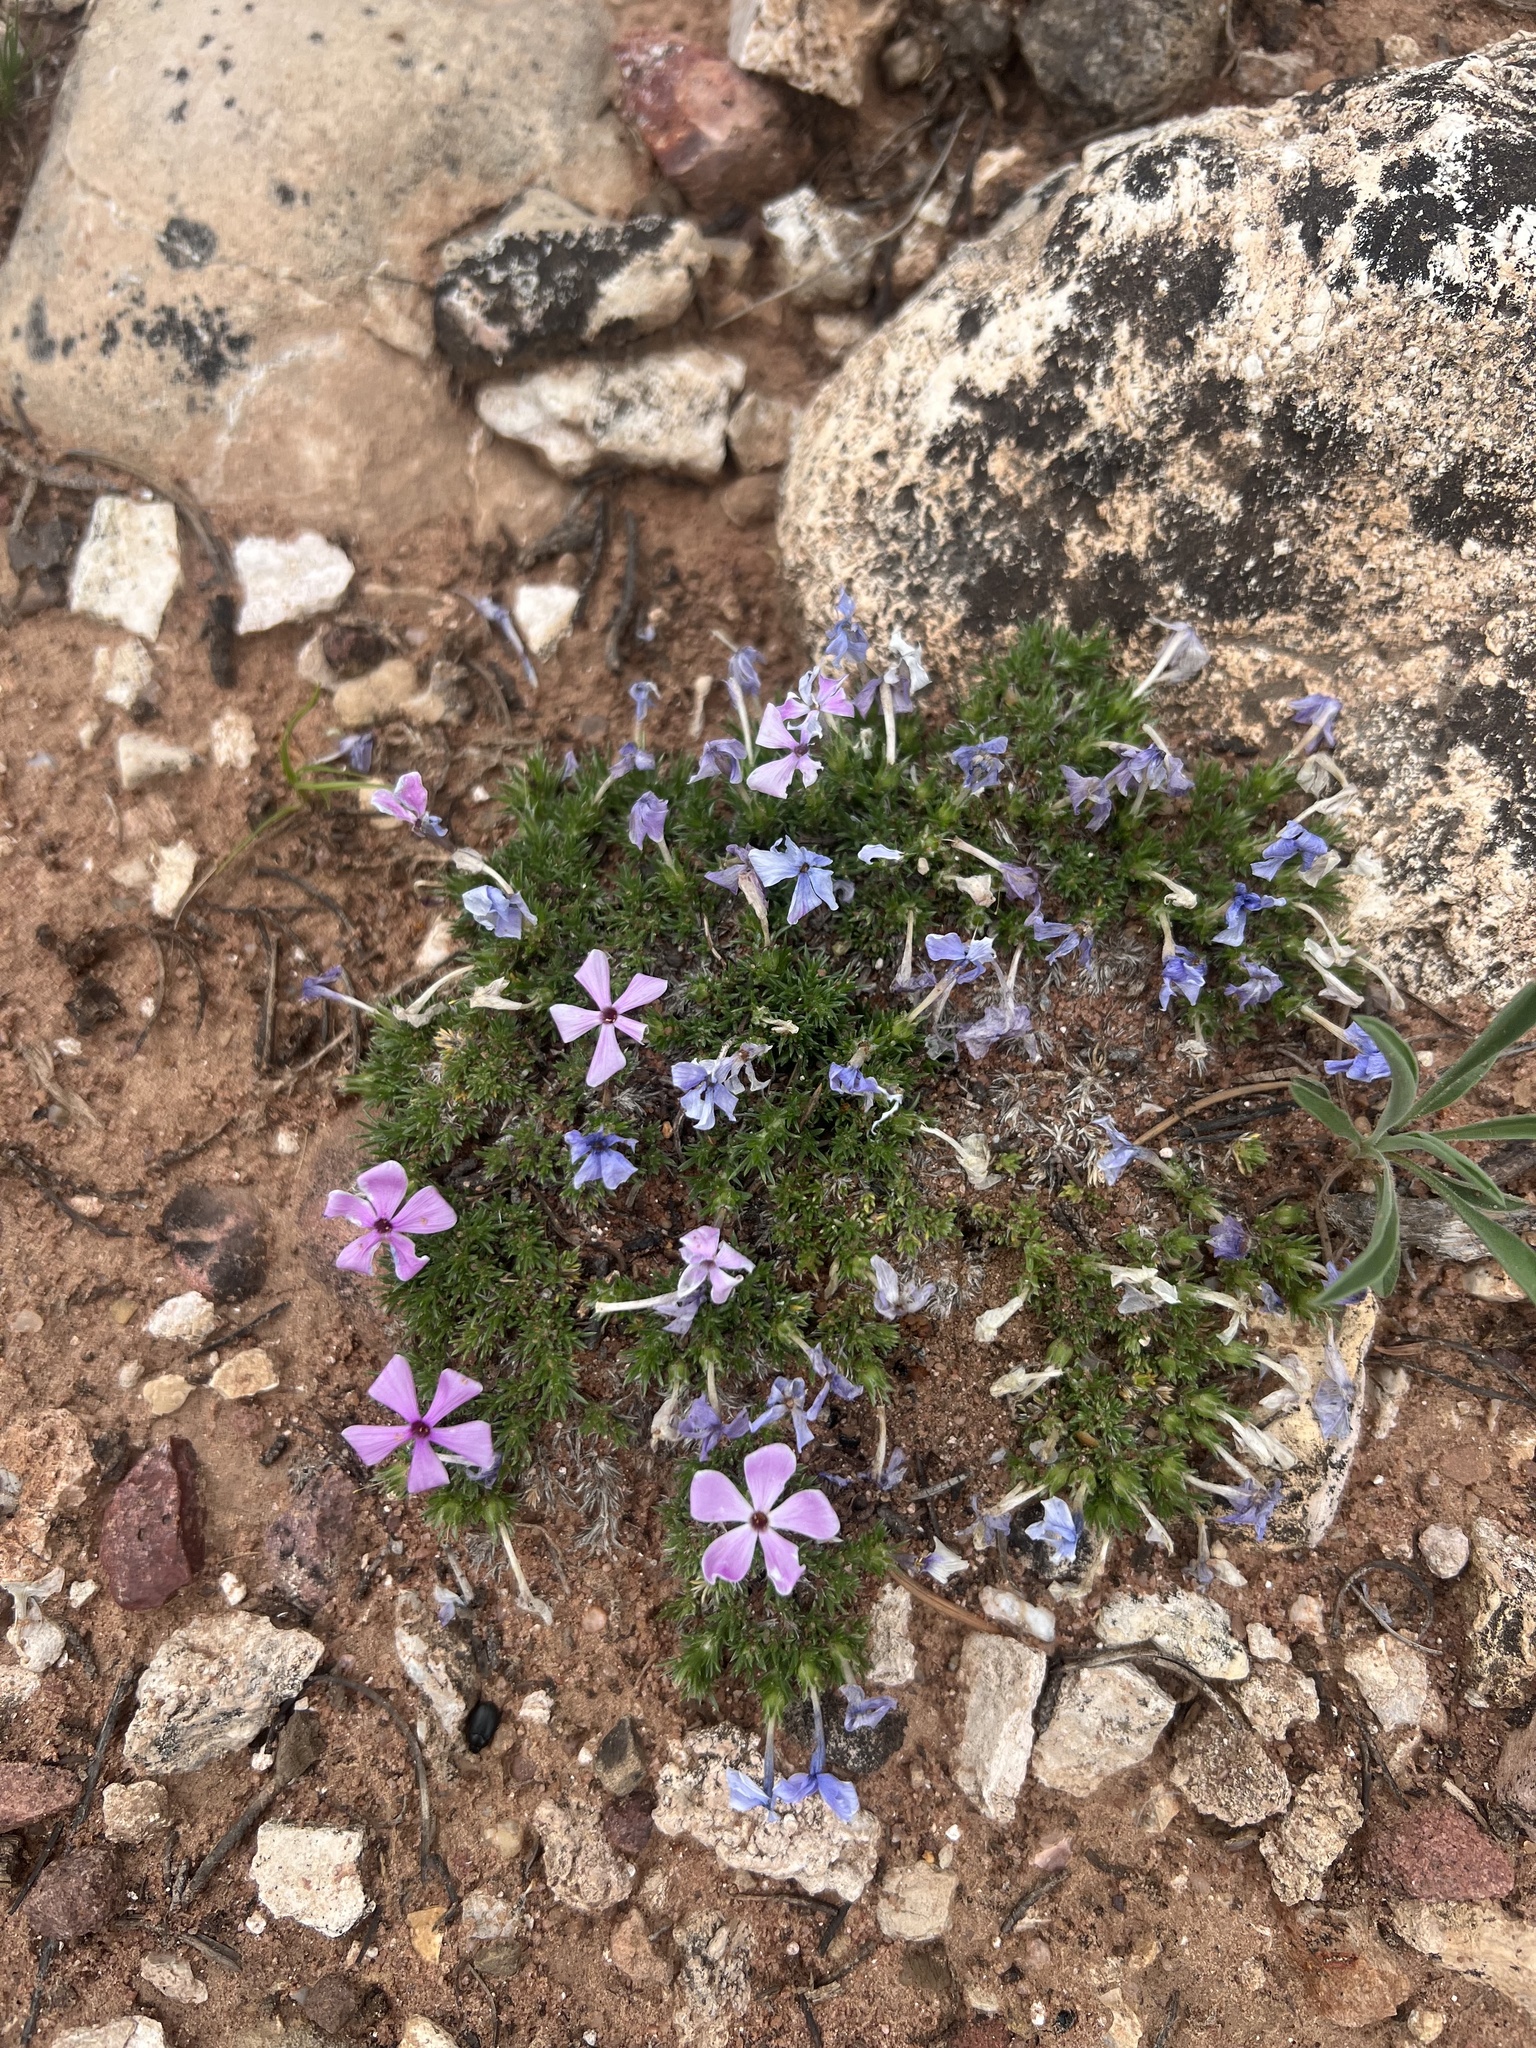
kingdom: Plantae
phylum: Tracheophyta
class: Magnoliopsida
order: Ericales
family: Polemoniaceae
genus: Phlox
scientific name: Phlox hoodii
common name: Moss phlox
